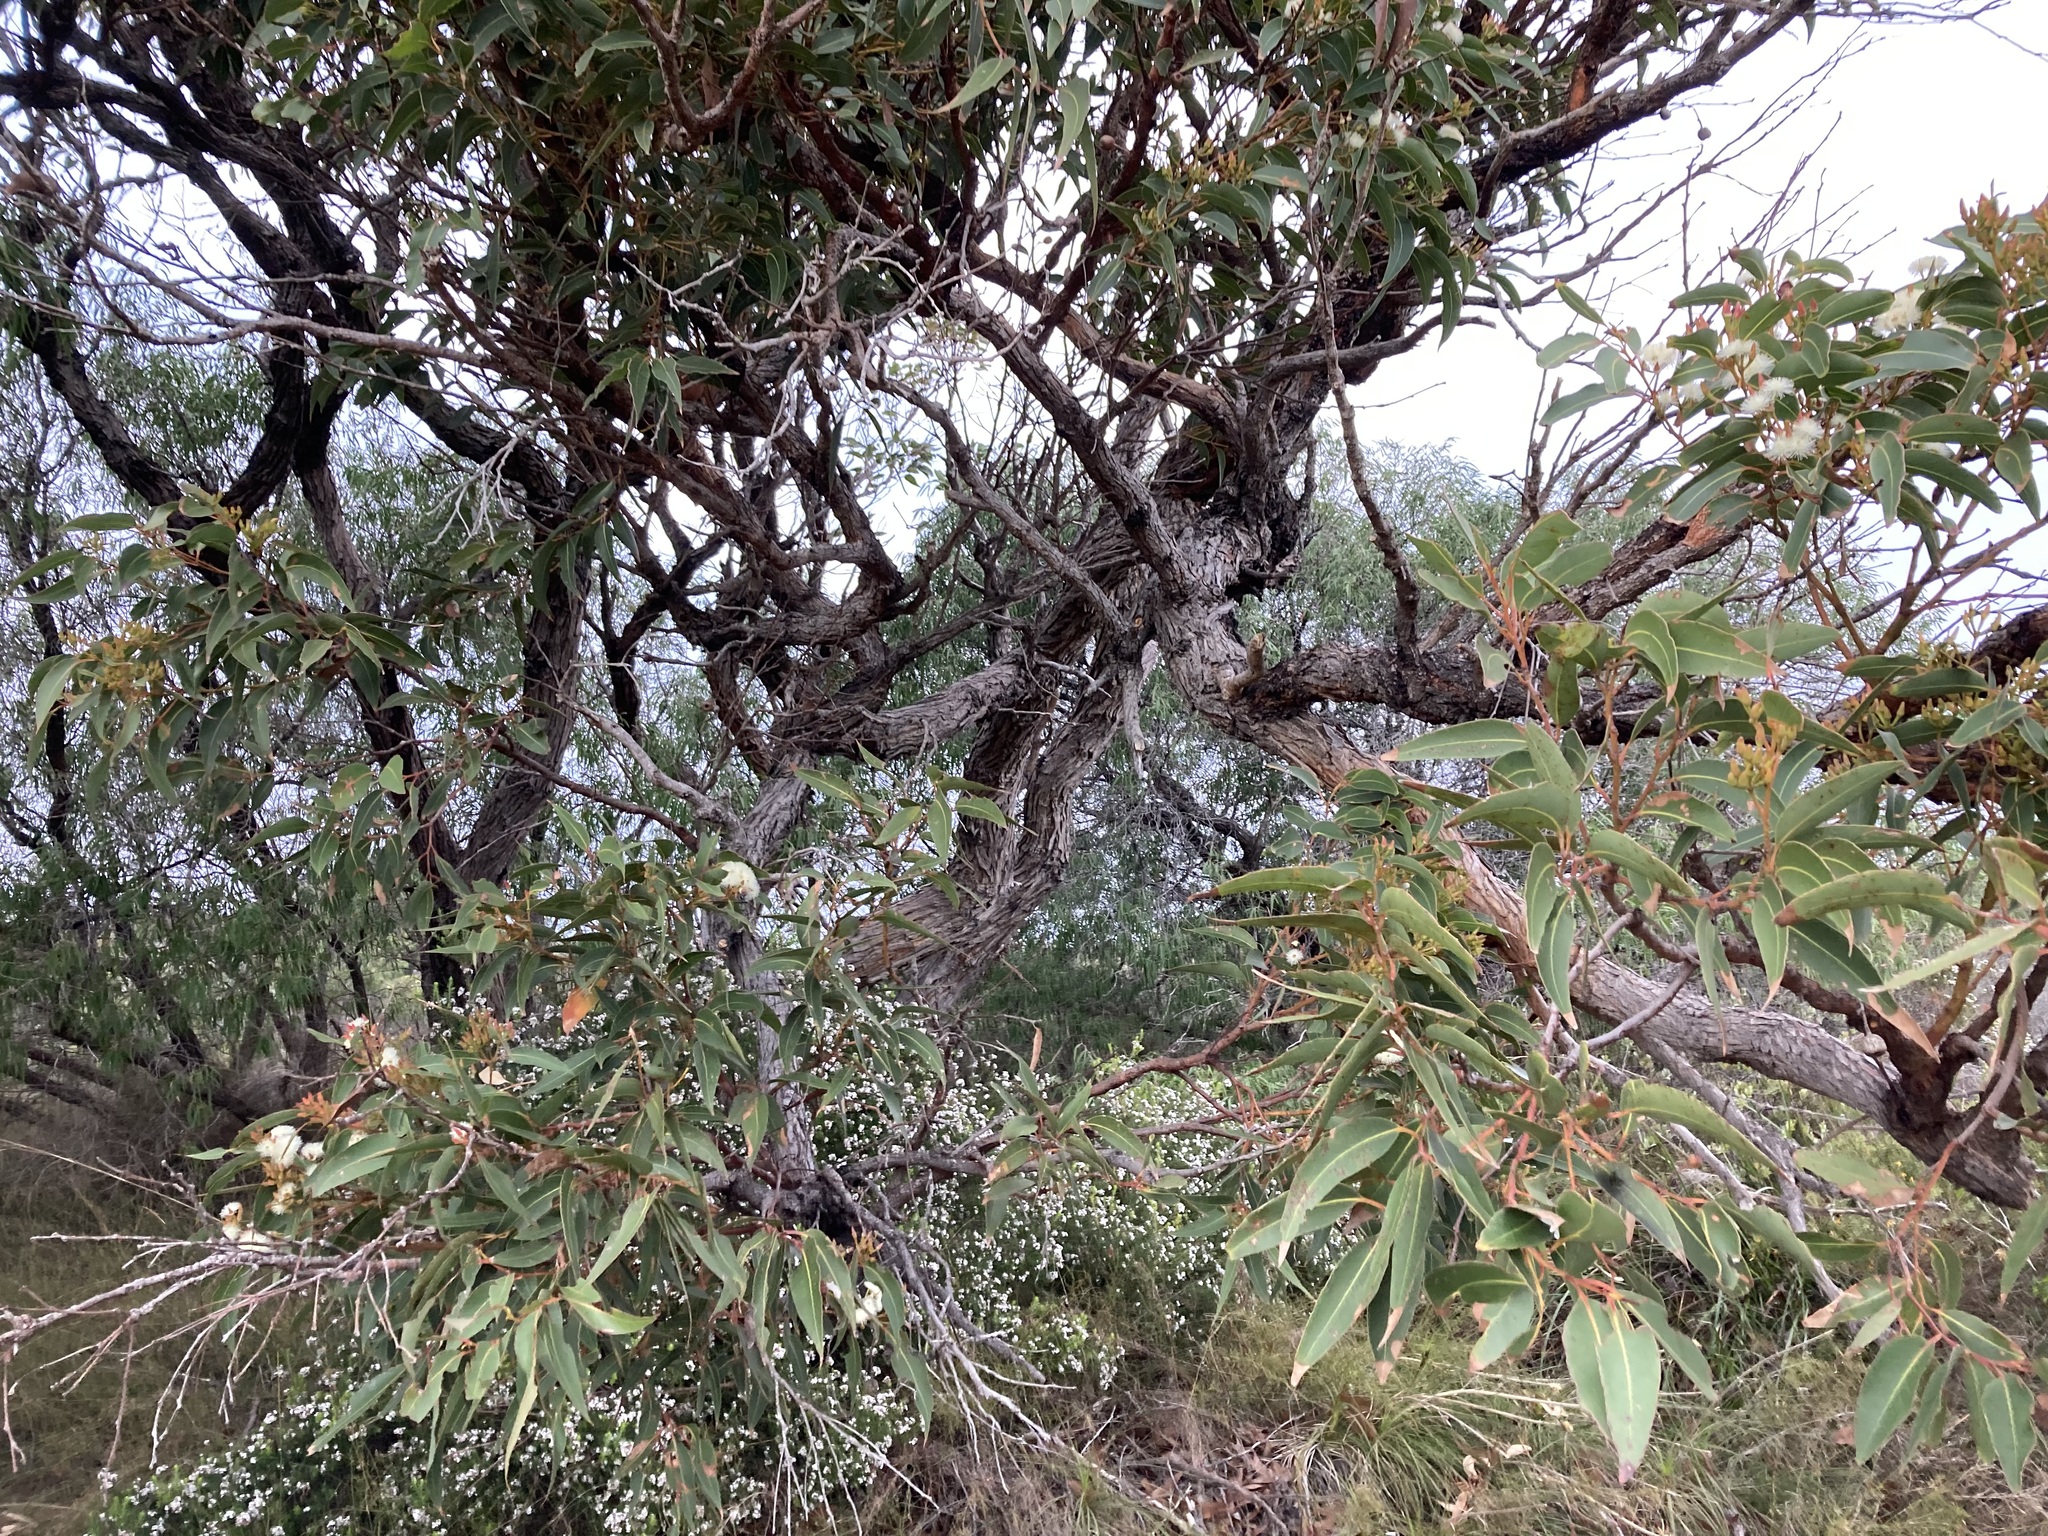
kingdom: Plantae
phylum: Tracheophyta
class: Magnoliopsida
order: Myrtales
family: Myrtaceae
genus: Eucalyptus
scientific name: Eucalyptus marginata
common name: Jarrah
